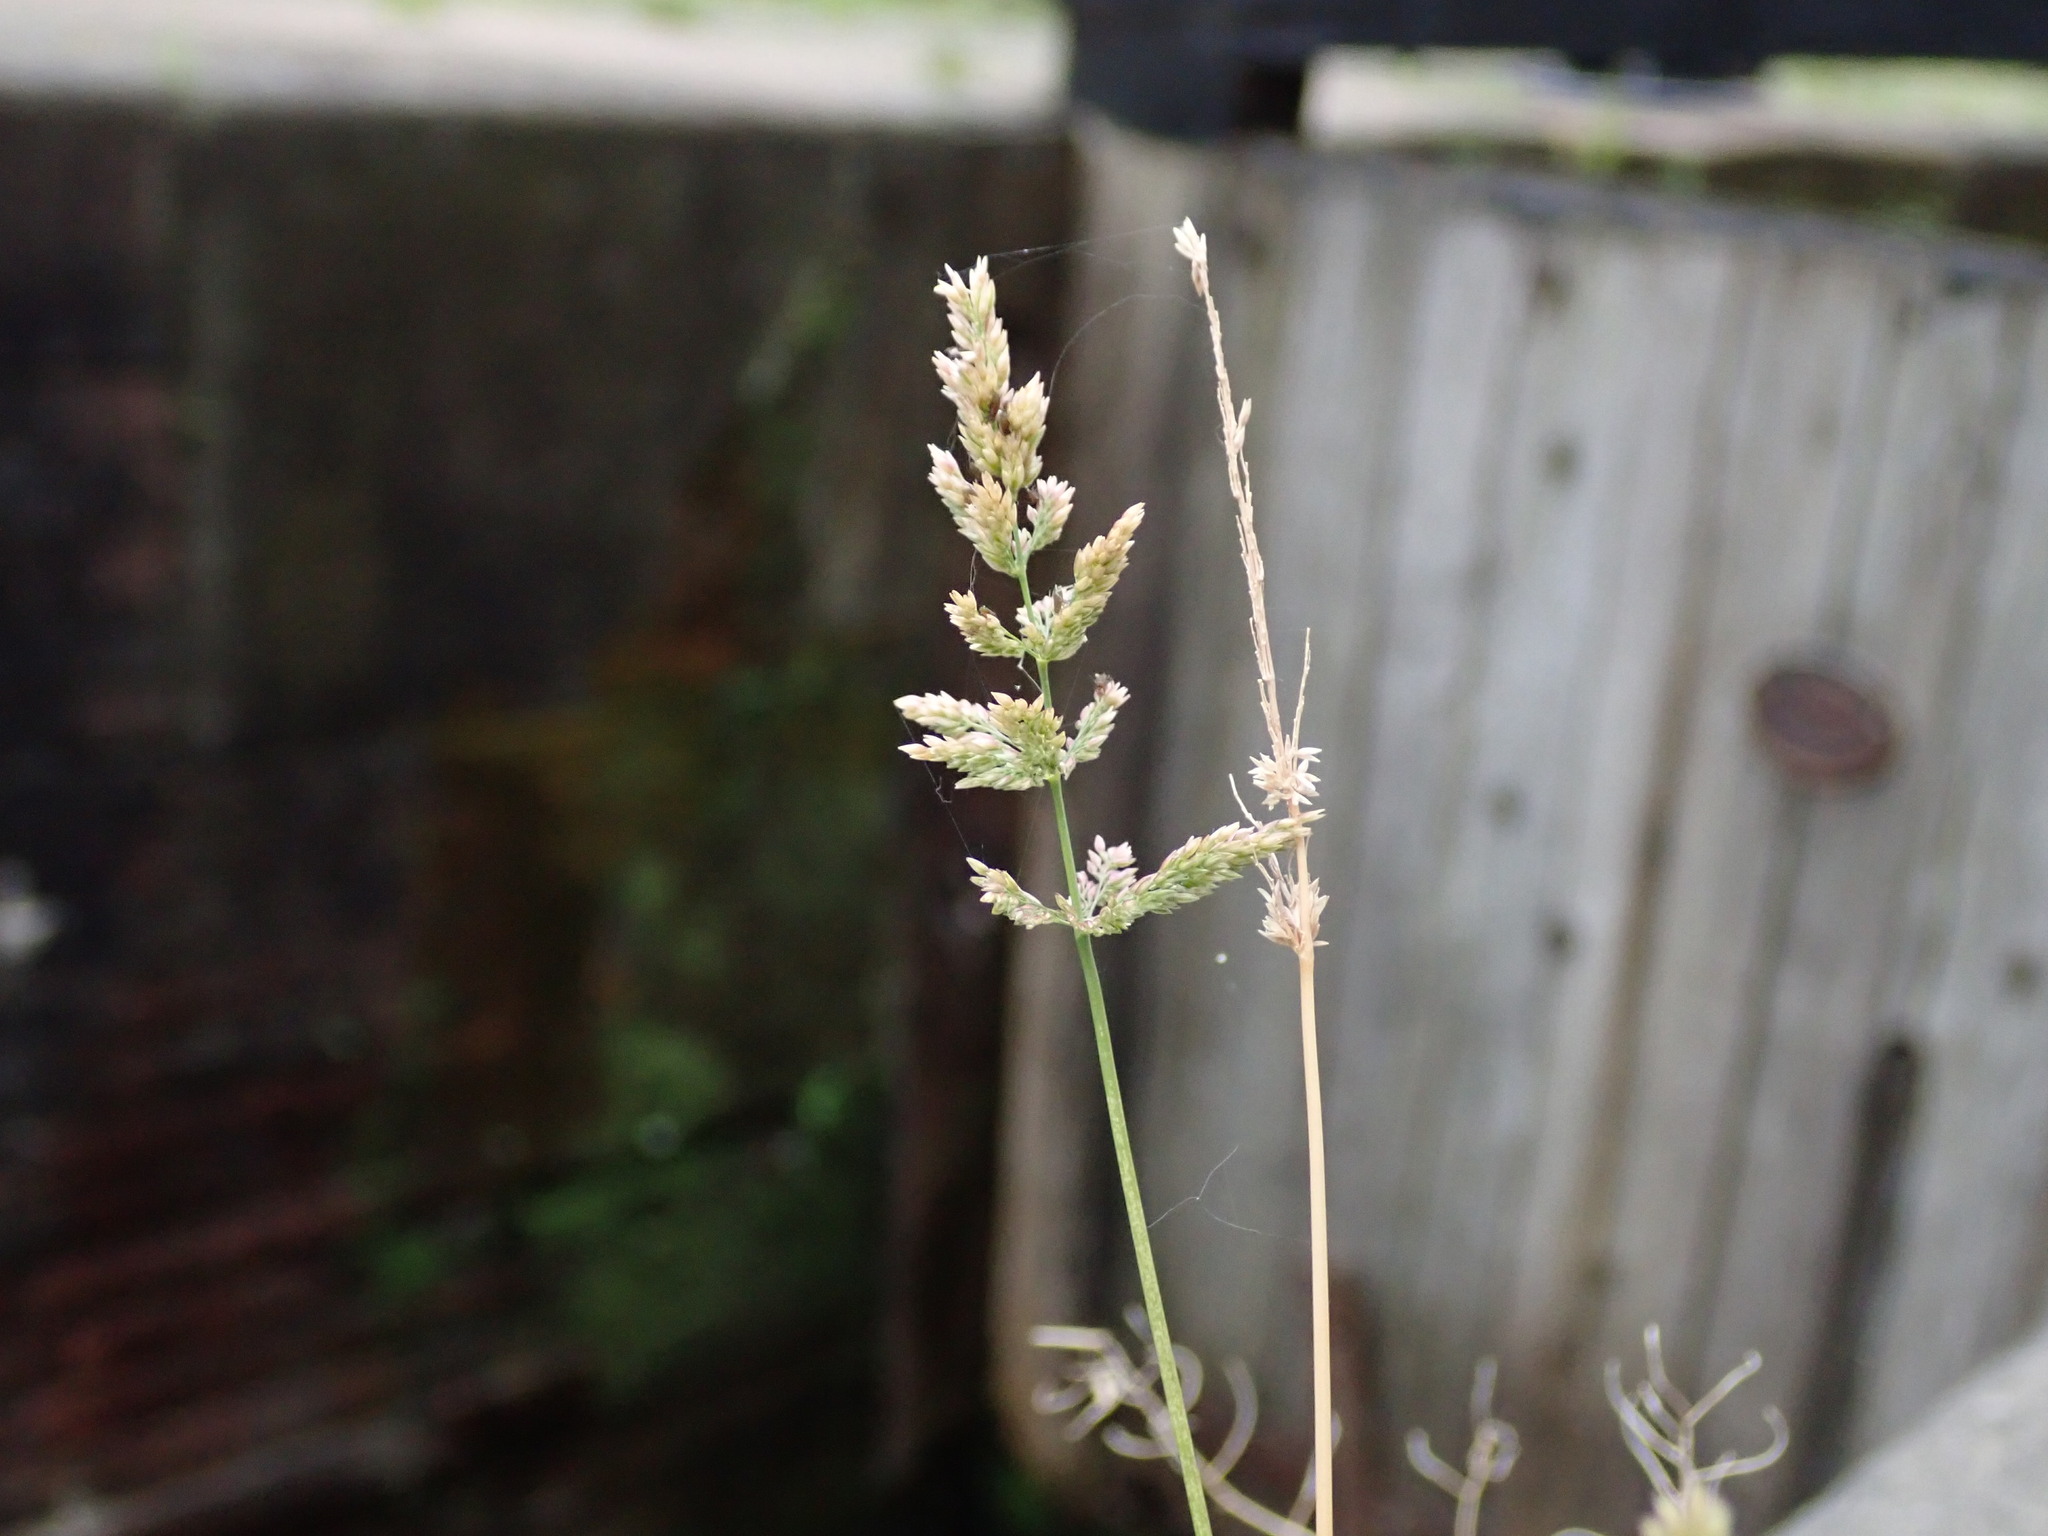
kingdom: Plantae
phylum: Tracheophyta
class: Liliopsida
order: Poales
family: Poaceae
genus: Polypogon
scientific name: Polypogon viridis
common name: Water bent
